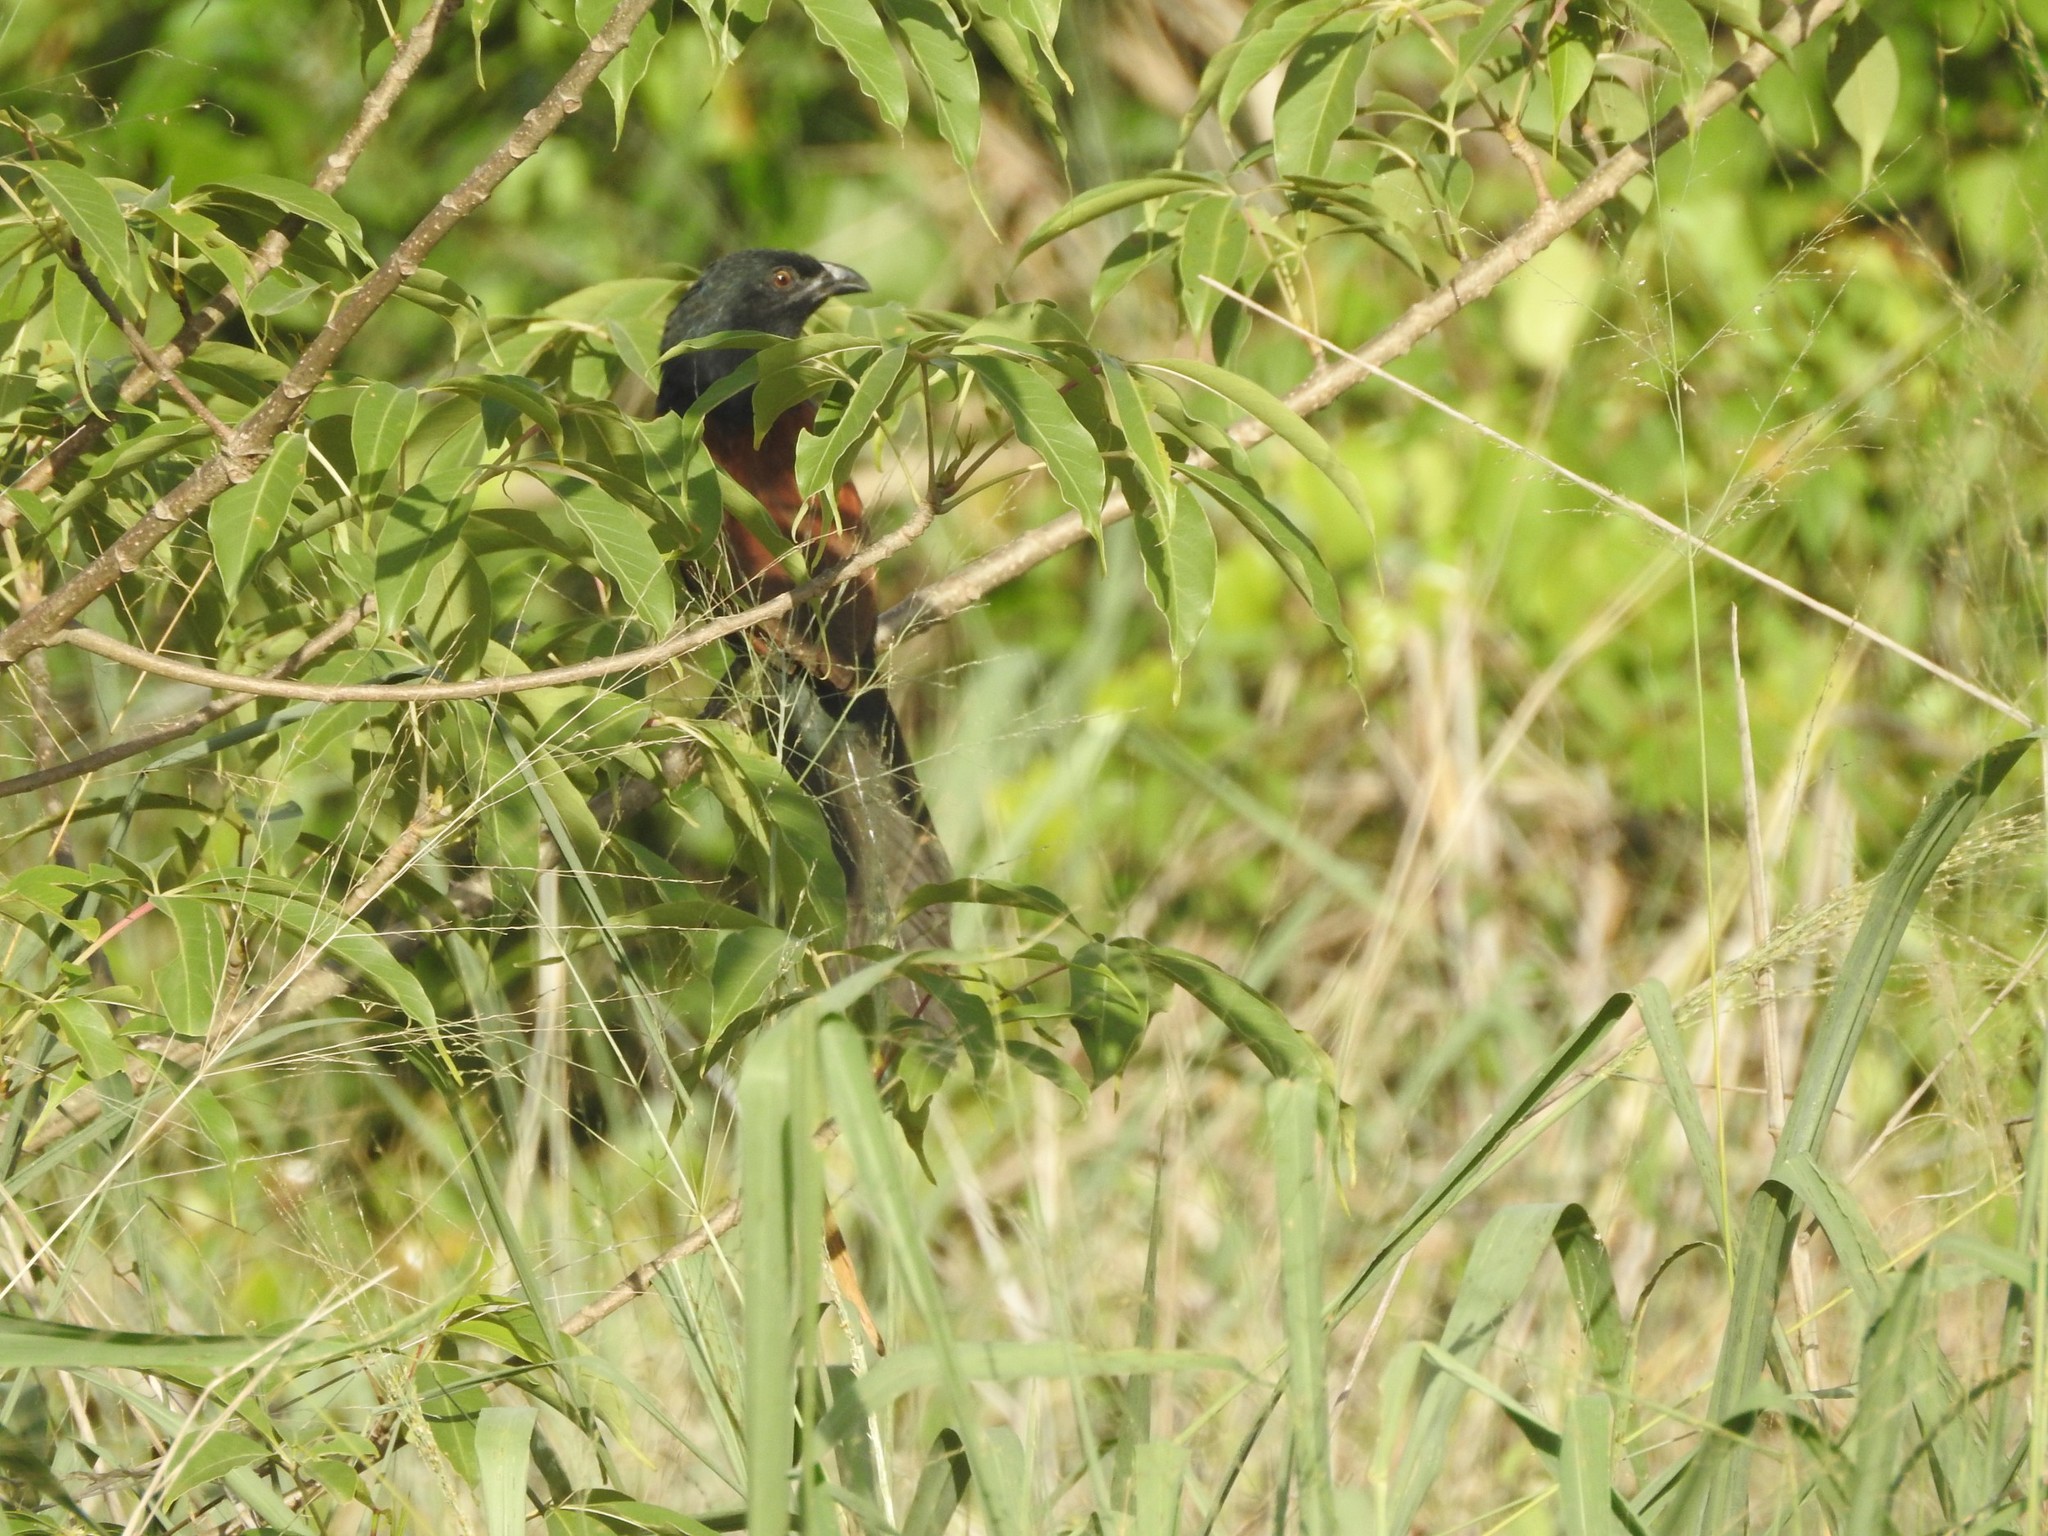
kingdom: Animalia
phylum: Chordata
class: Aves
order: Cuculiformes
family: Cuculidae
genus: Centropus
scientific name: Centropus sinensis
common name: Greater coucal
